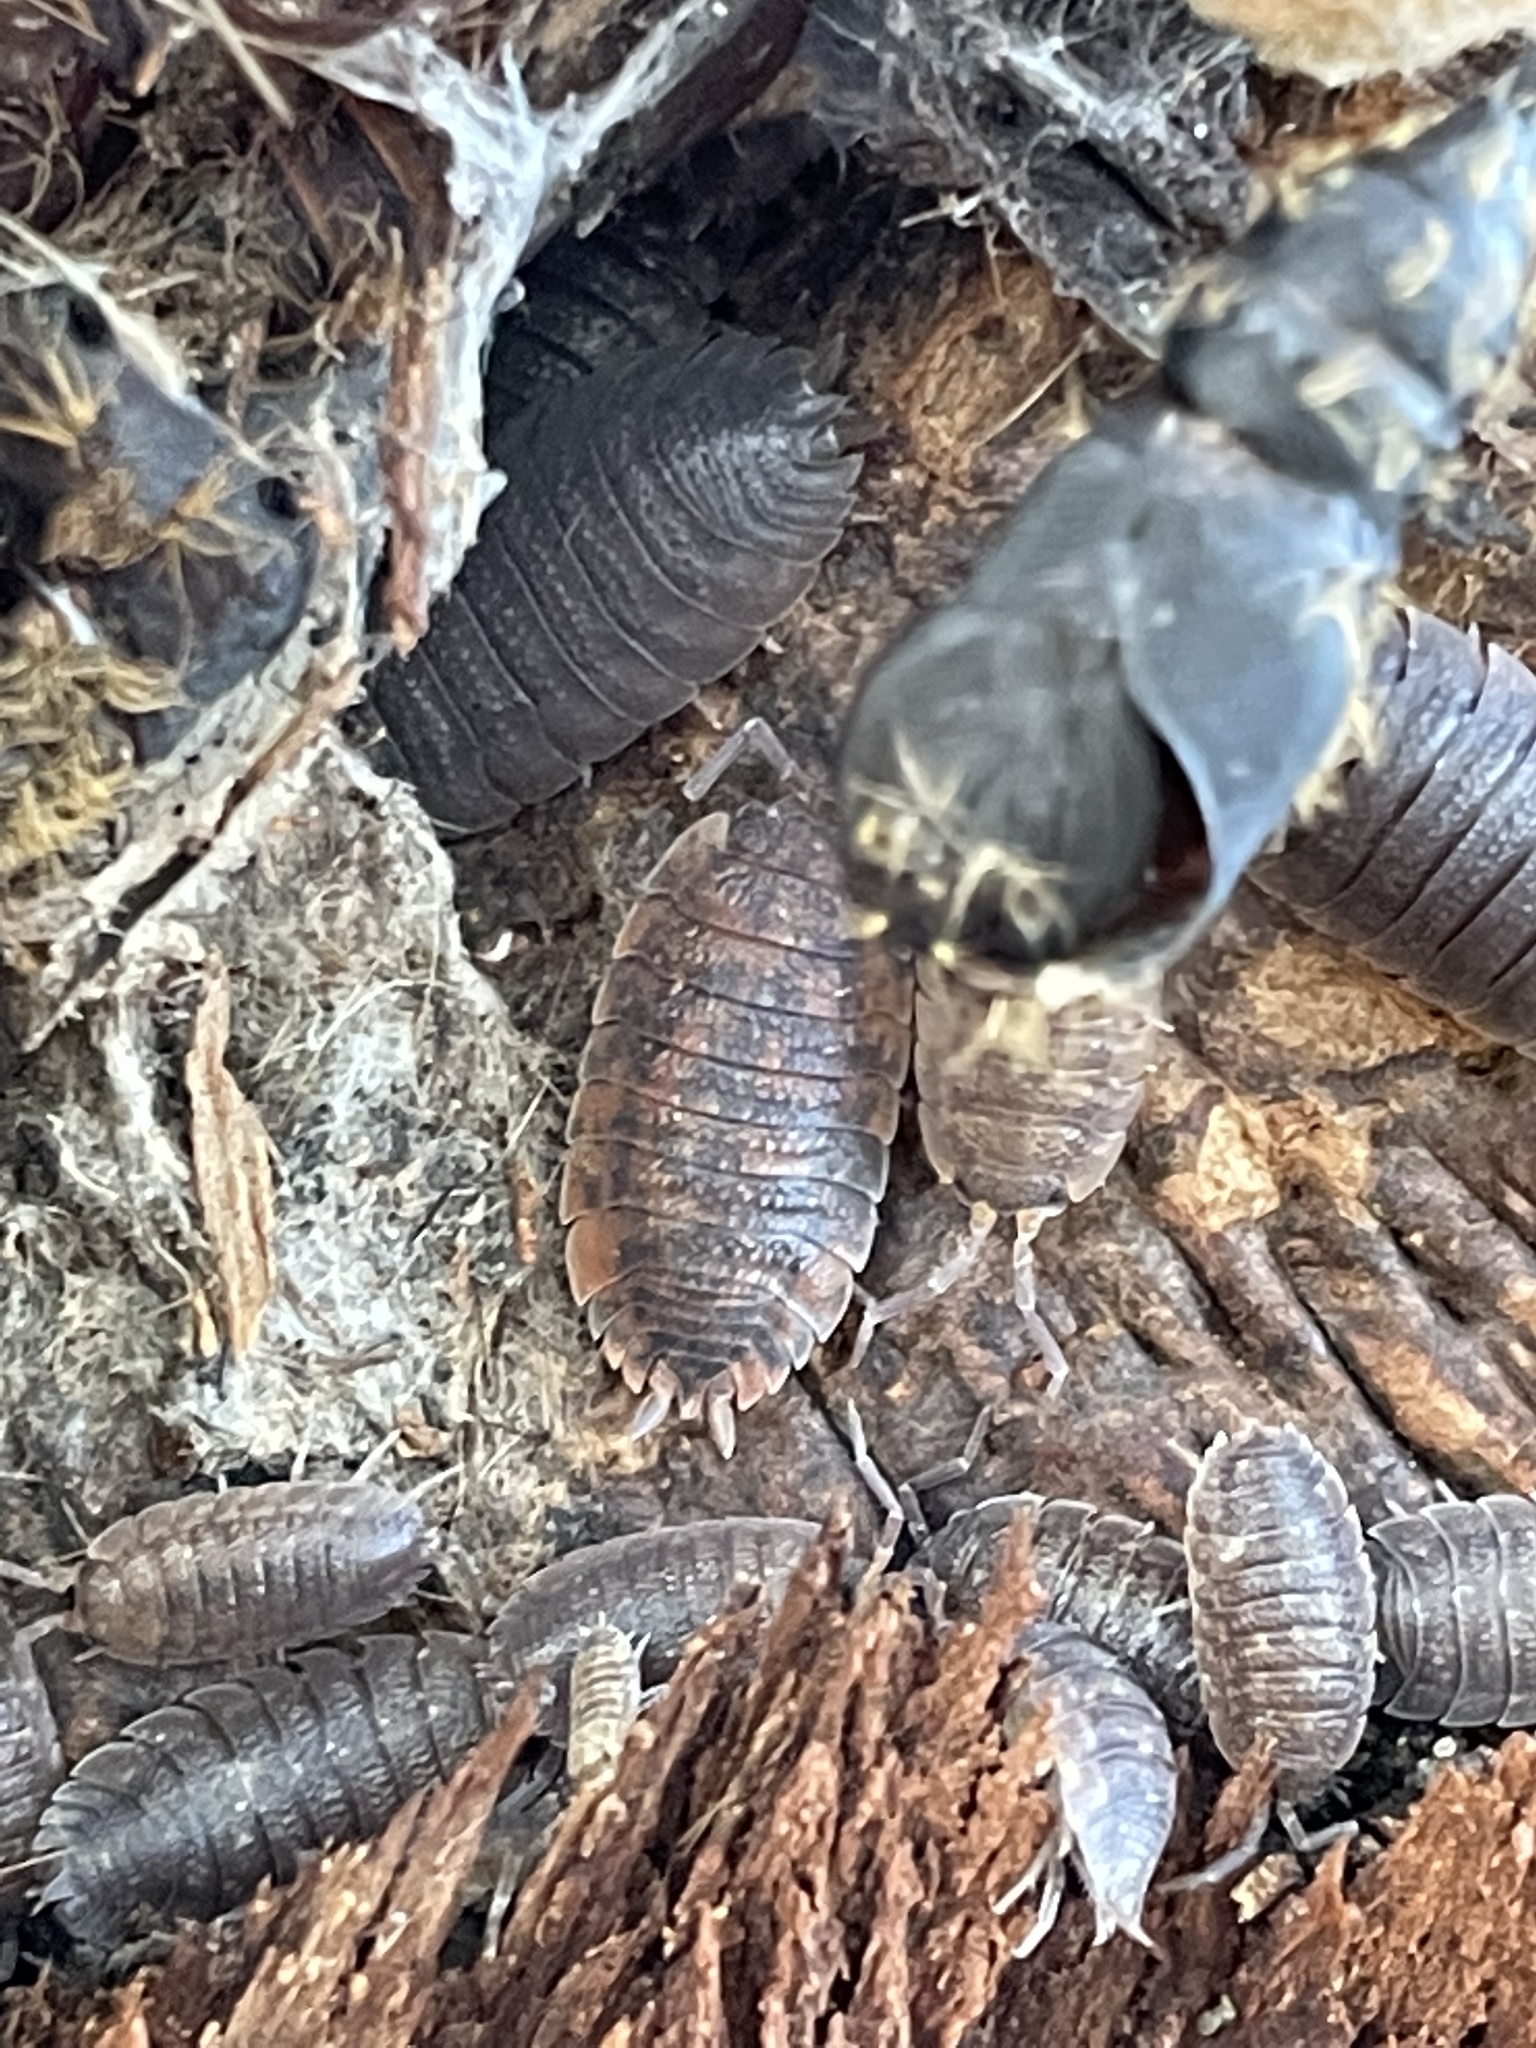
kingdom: Animalia
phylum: Arthropoda
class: Malacostraca
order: Isopoda
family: Porcellionidae
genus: Porcellio
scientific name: Porcellio scaber
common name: Common rough woodlouse
